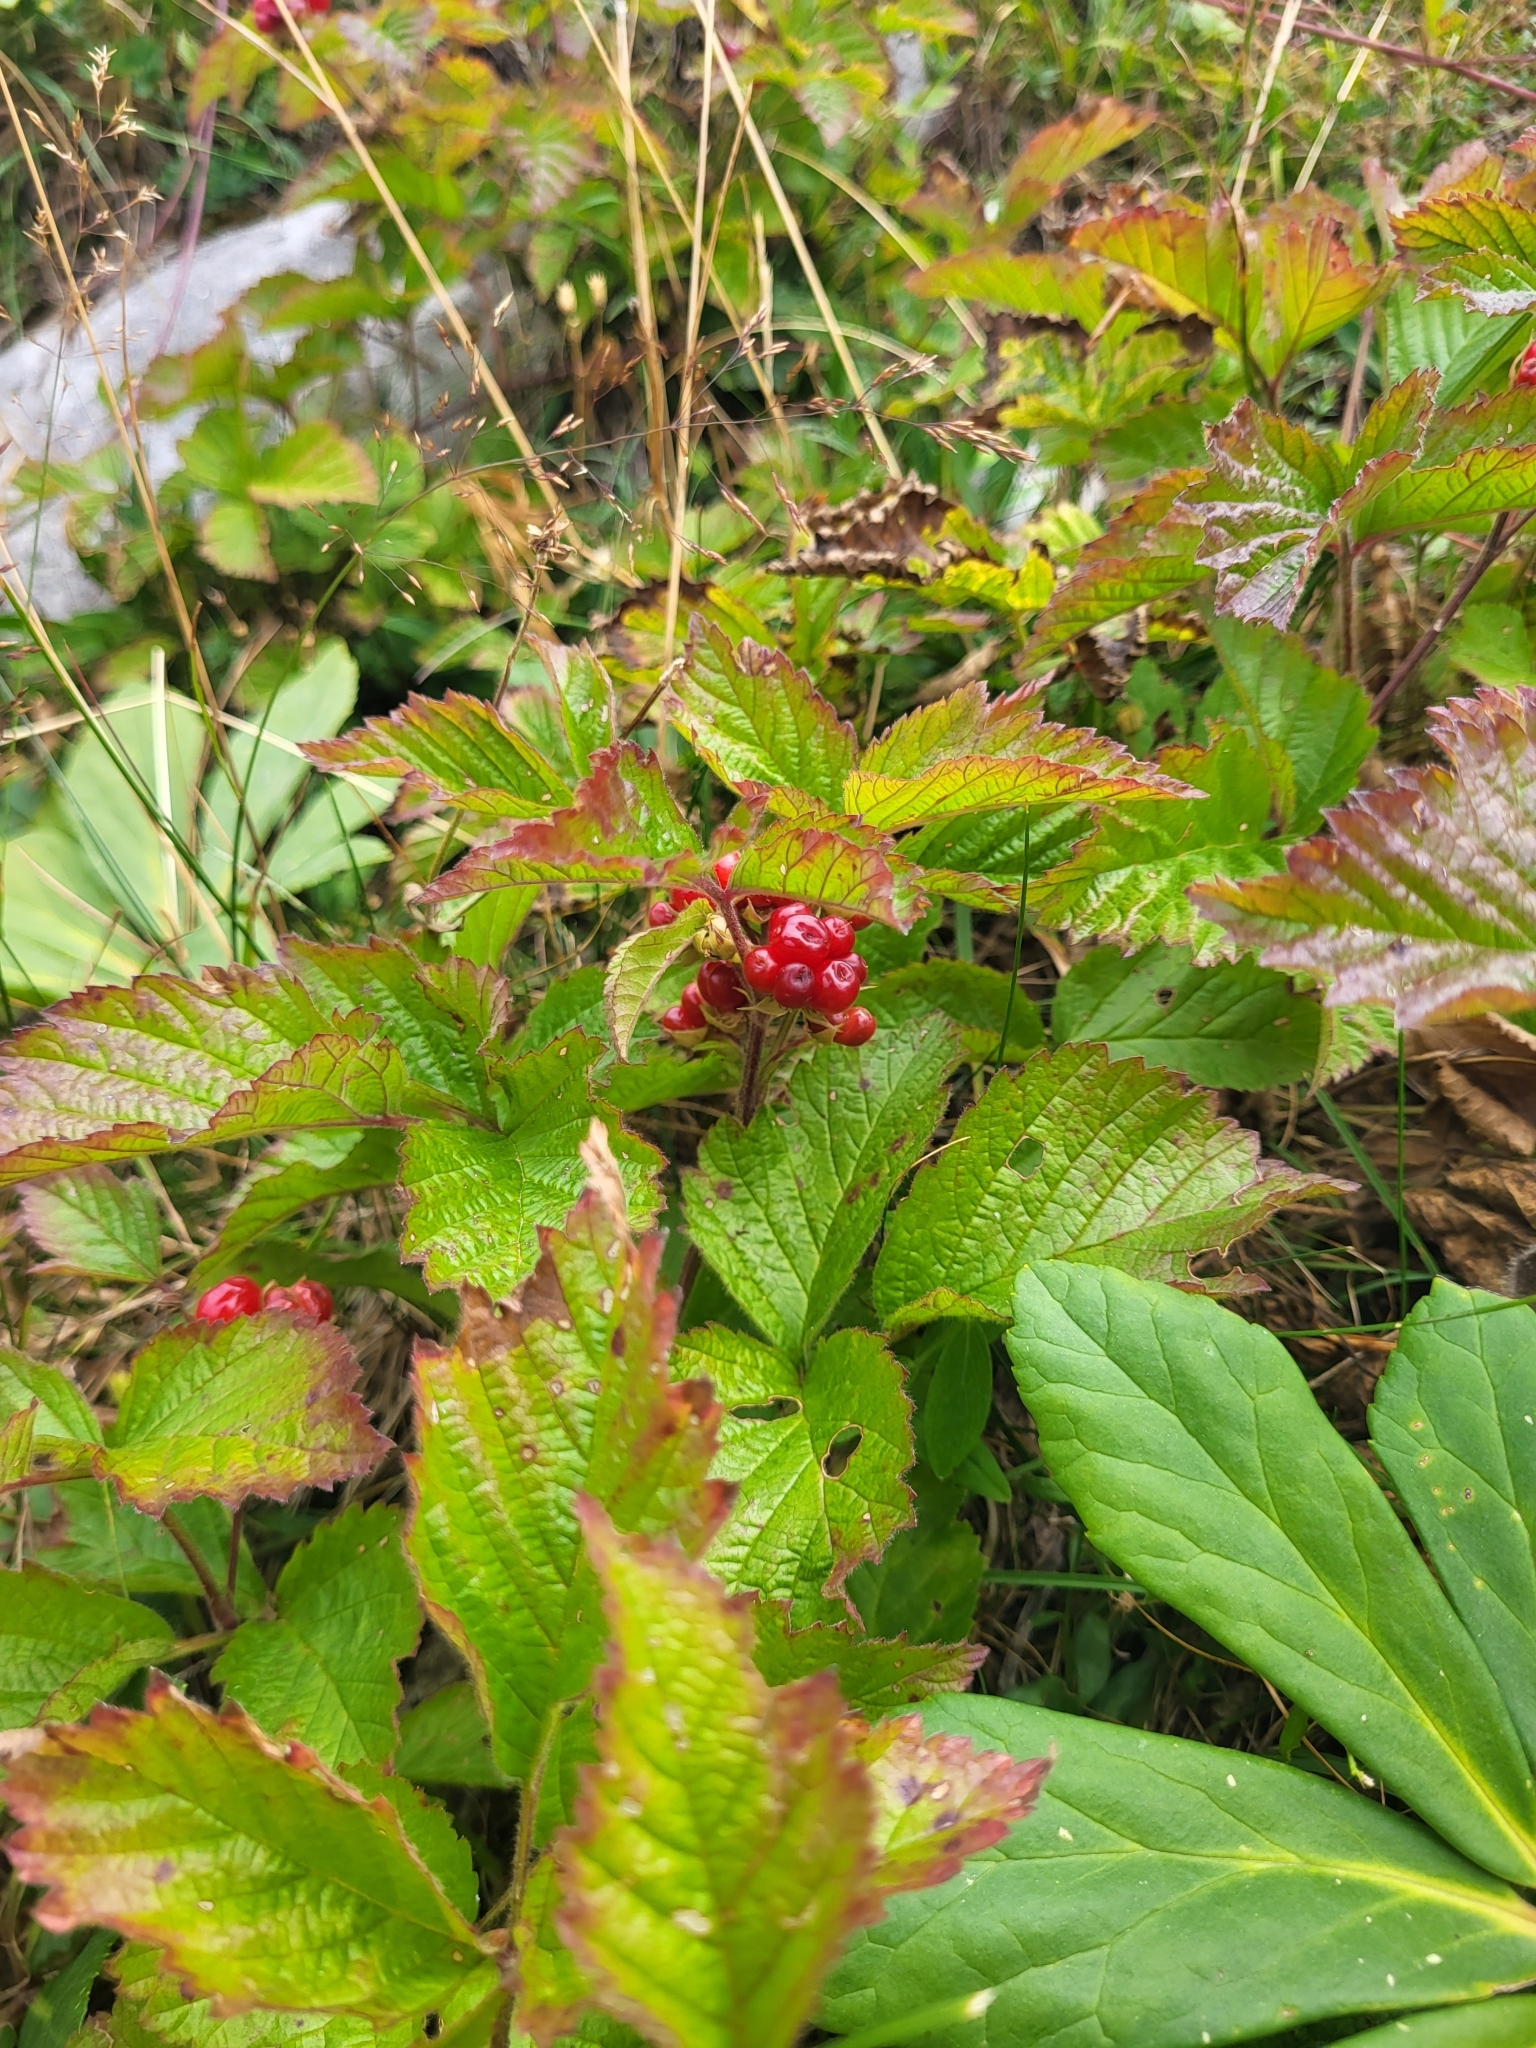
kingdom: Plantae
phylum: Tracheophyta
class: Magnoliopsida
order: Rosales
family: Rosaceae
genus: Rubus
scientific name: Rubus saxatilis
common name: Stone bramble
